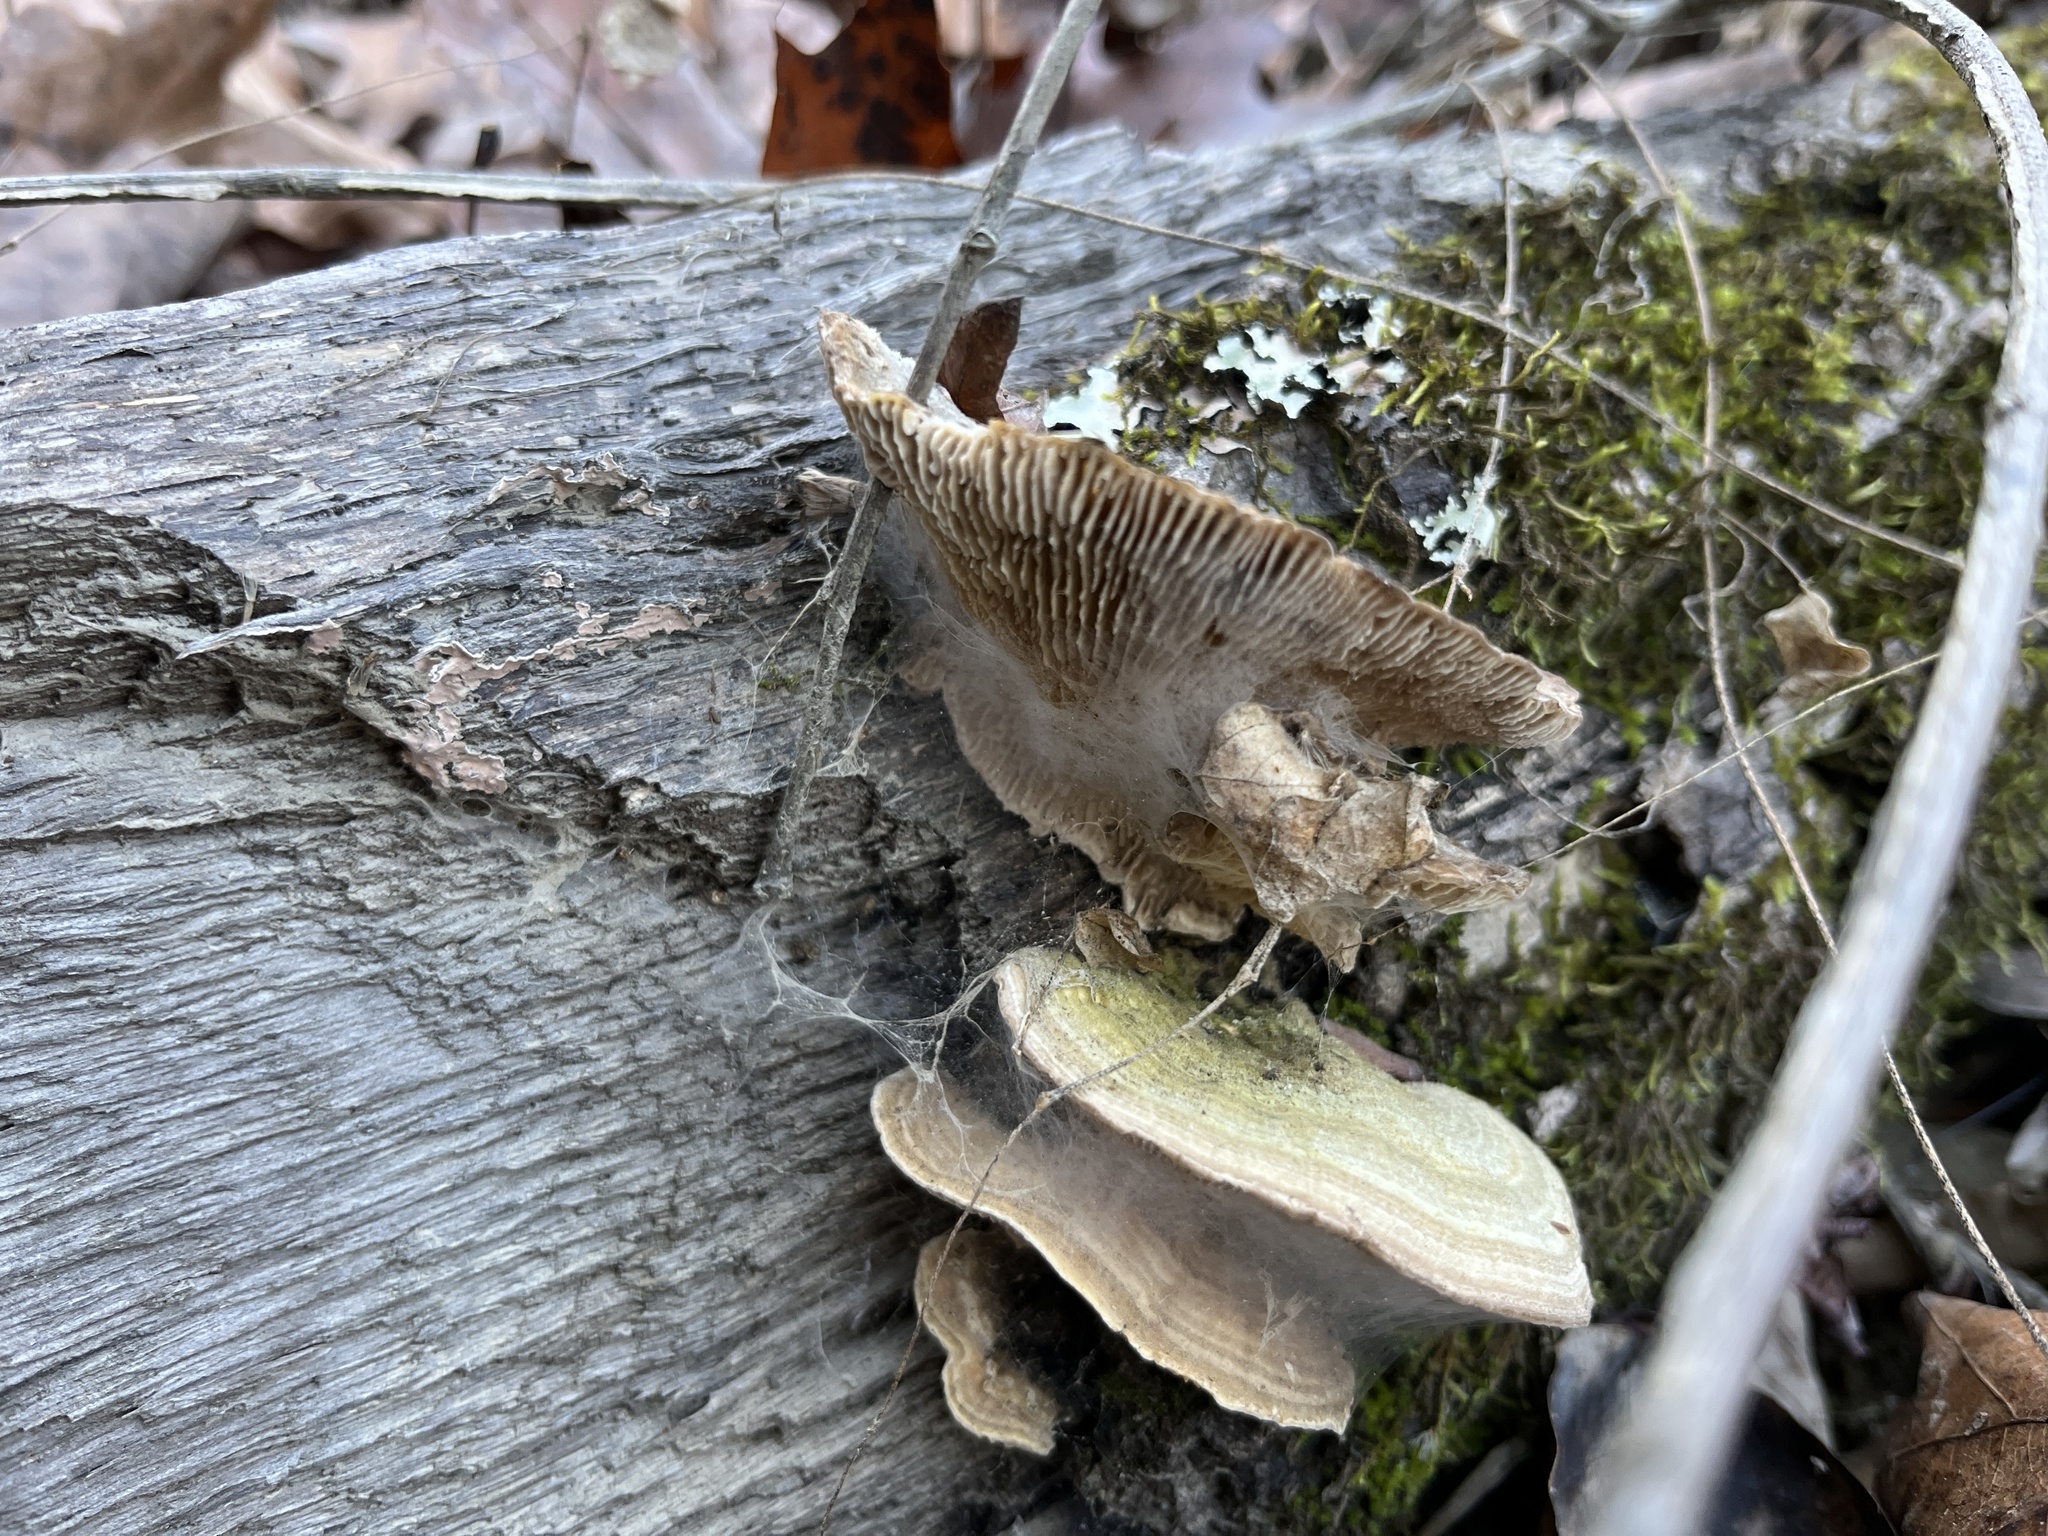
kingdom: Fungi
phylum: Basidiomycota
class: Agaricomycetes
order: Polyporales
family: Polyporaceae
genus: Lenzites
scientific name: Lenzites betulinus
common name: Birch mazegill
